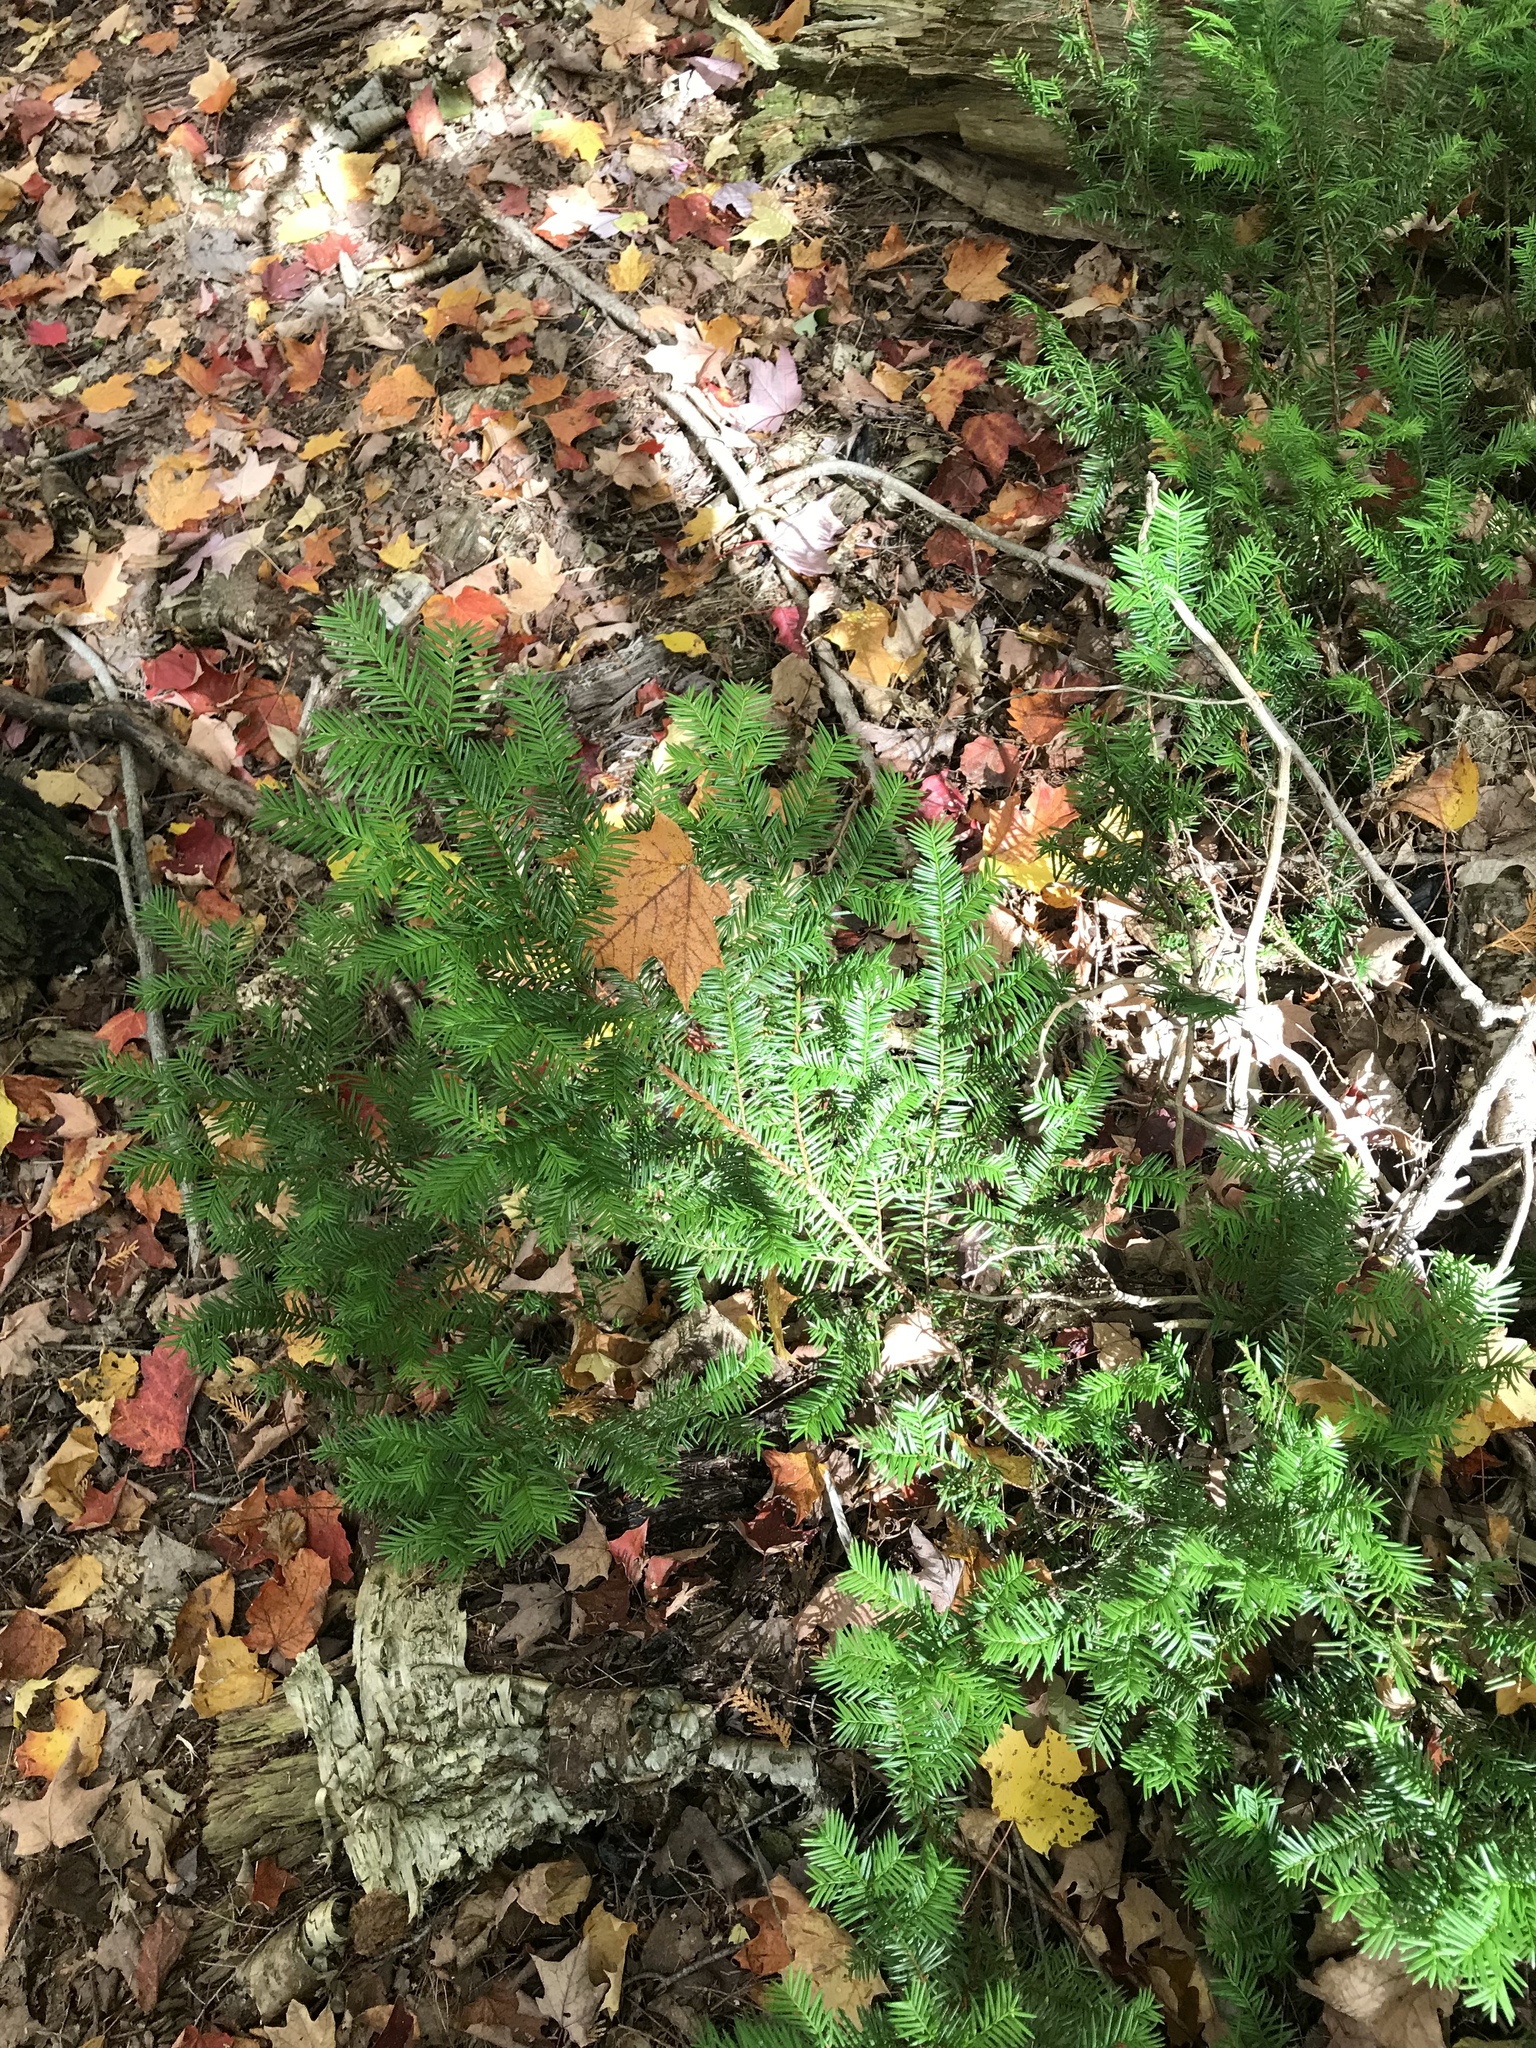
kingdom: Plantae
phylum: Tracheophyta
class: Pinopsida
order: Pinales
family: Taxaceae
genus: Taxus
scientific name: Taxus canadensis
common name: American yew
